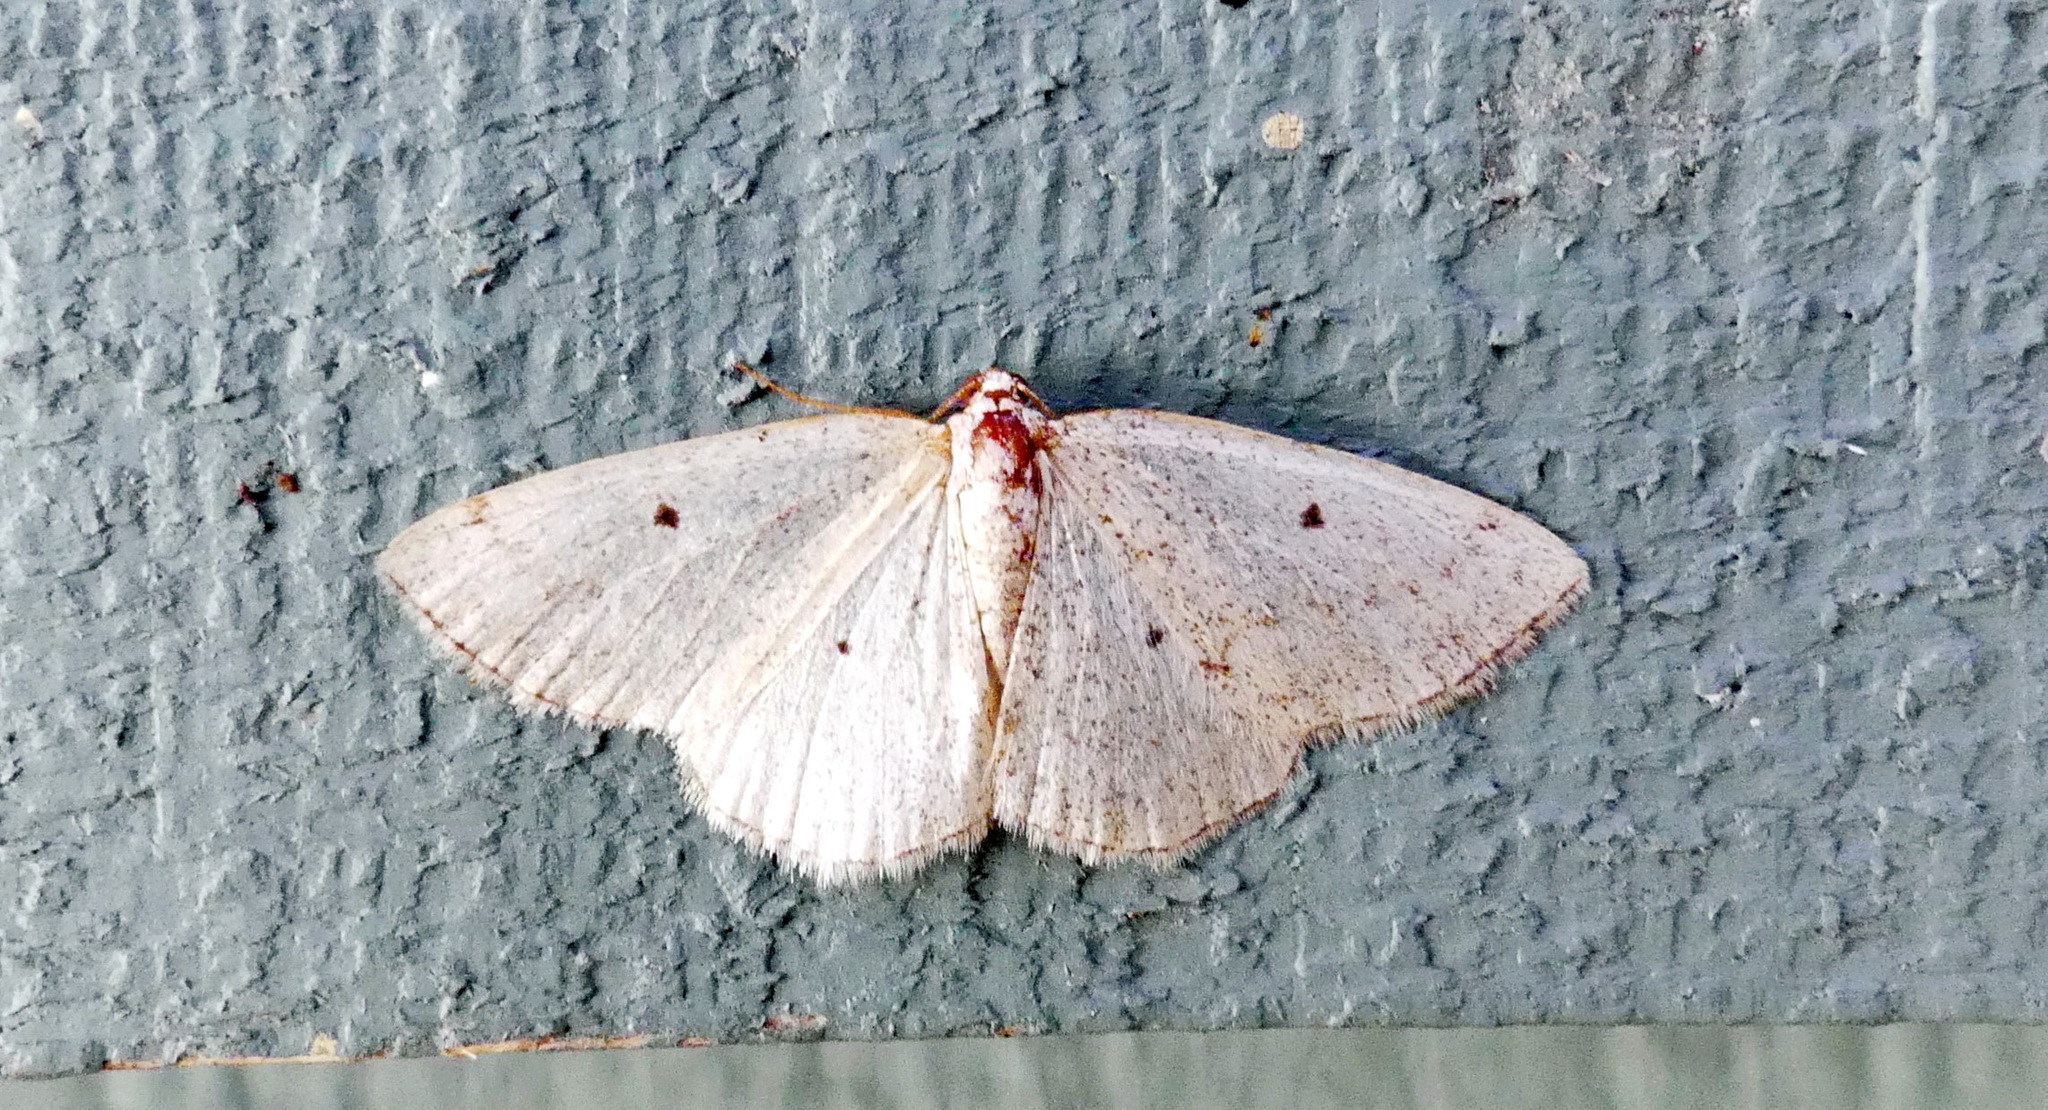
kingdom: Animalia
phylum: Arthropoda
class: Insecta
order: Lepidoptera
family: Geometridae
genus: Lomographa
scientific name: Lomographa glomeraria
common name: Gray spring moth
